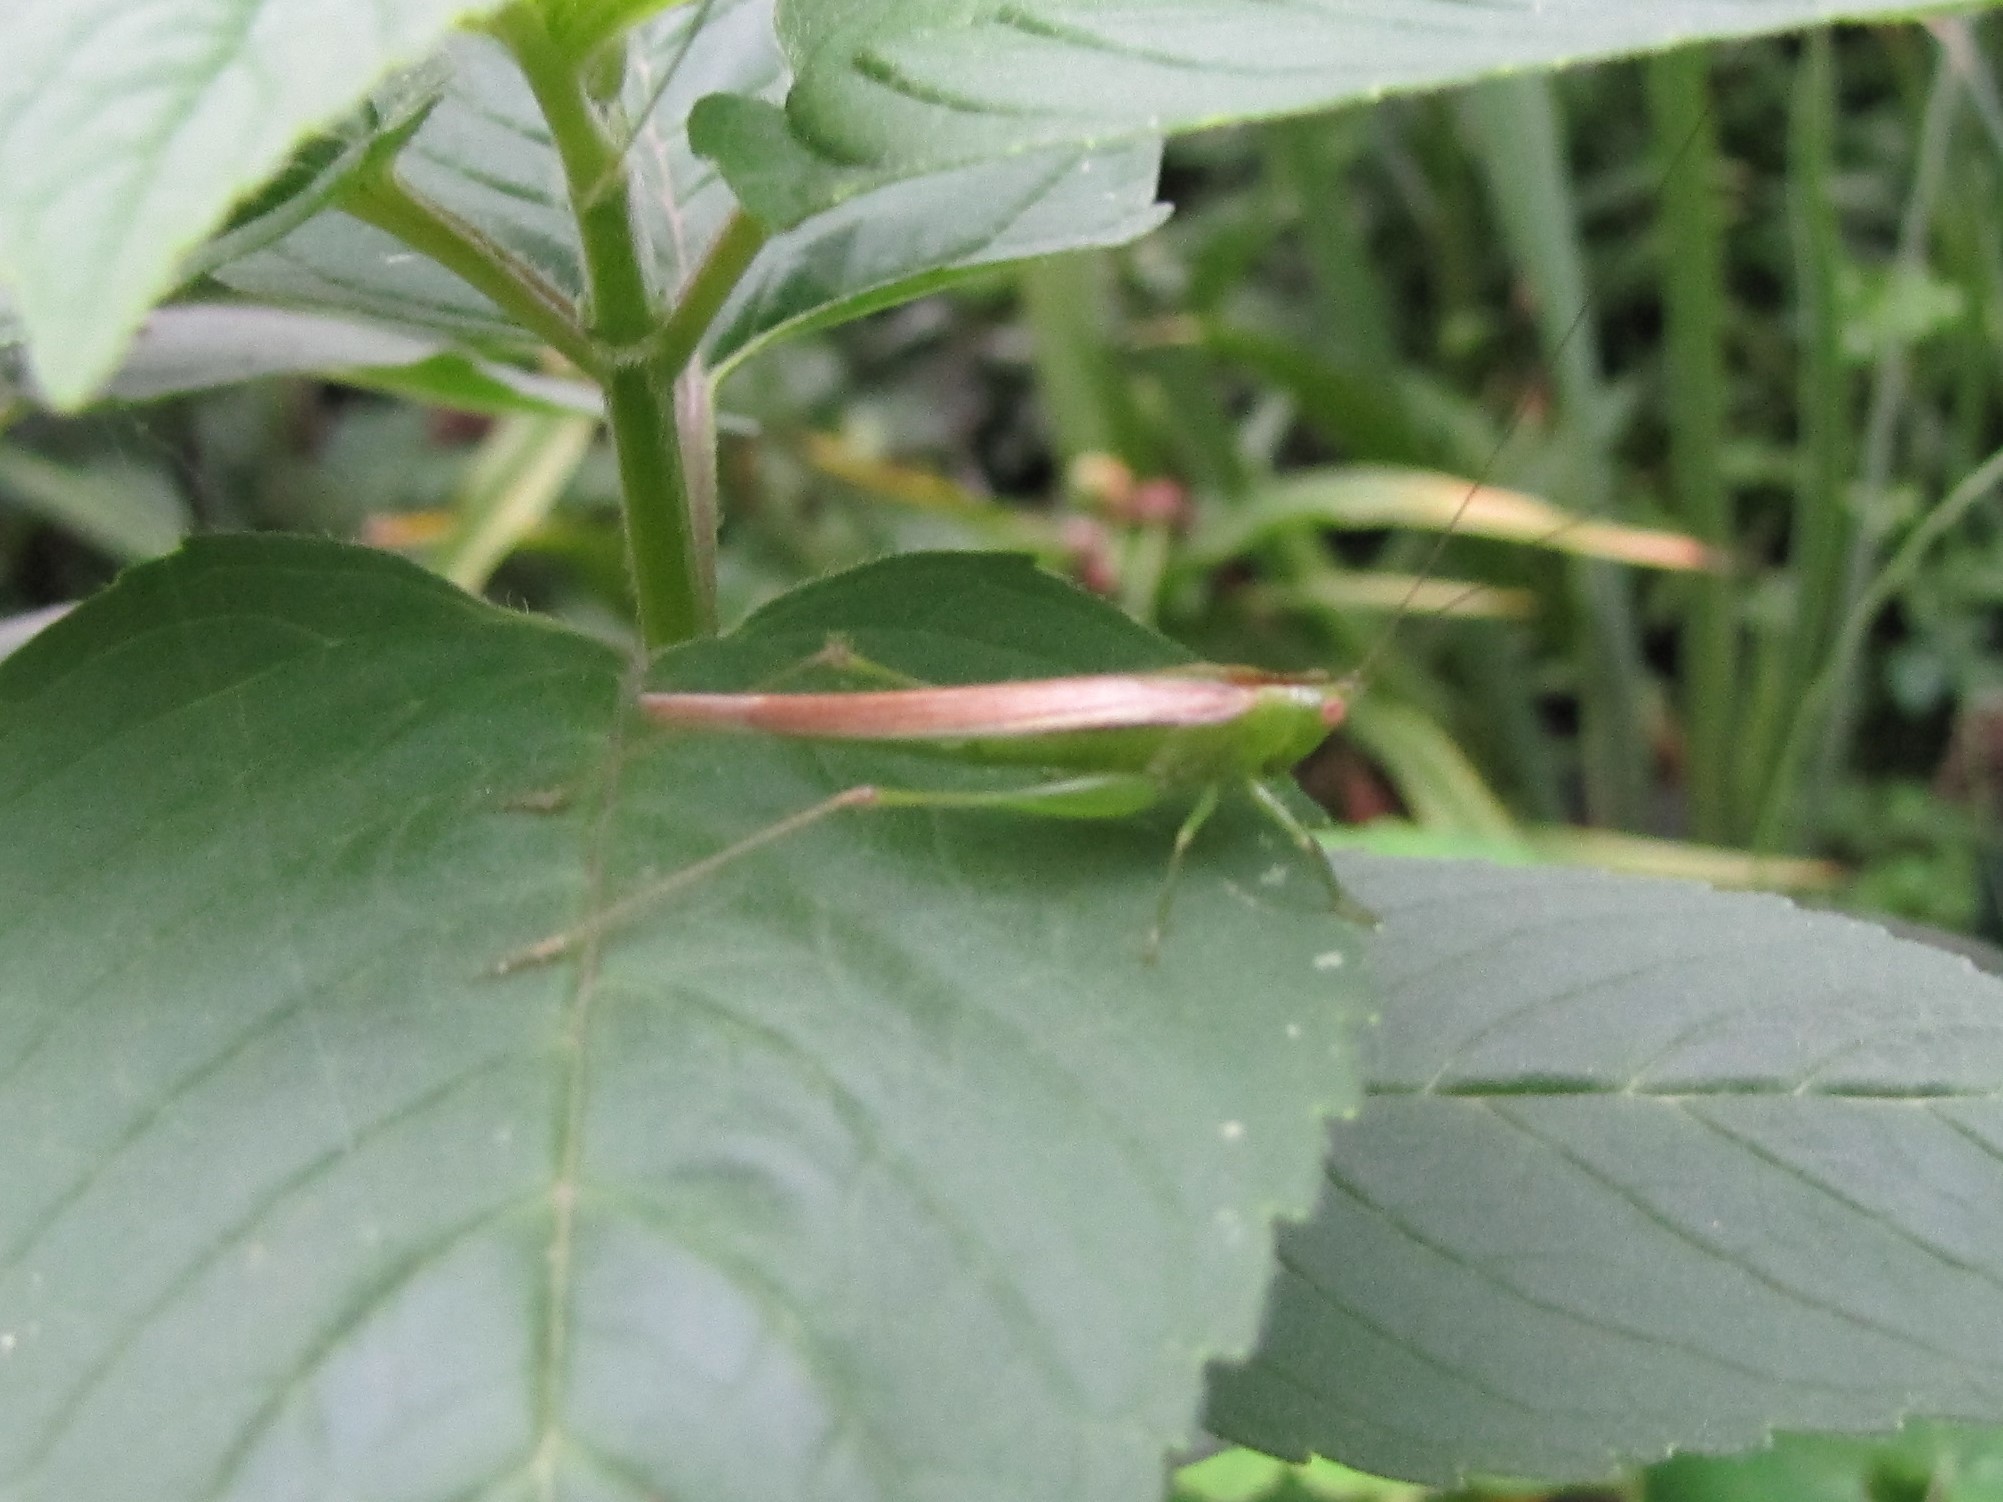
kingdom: Animalia
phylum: Arthropoda
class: Insecta
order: Orthoptera
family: Tettigoniidae
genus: Conocephalus
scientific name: Conocephalus fasciatus
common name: Slender meadow katydid
